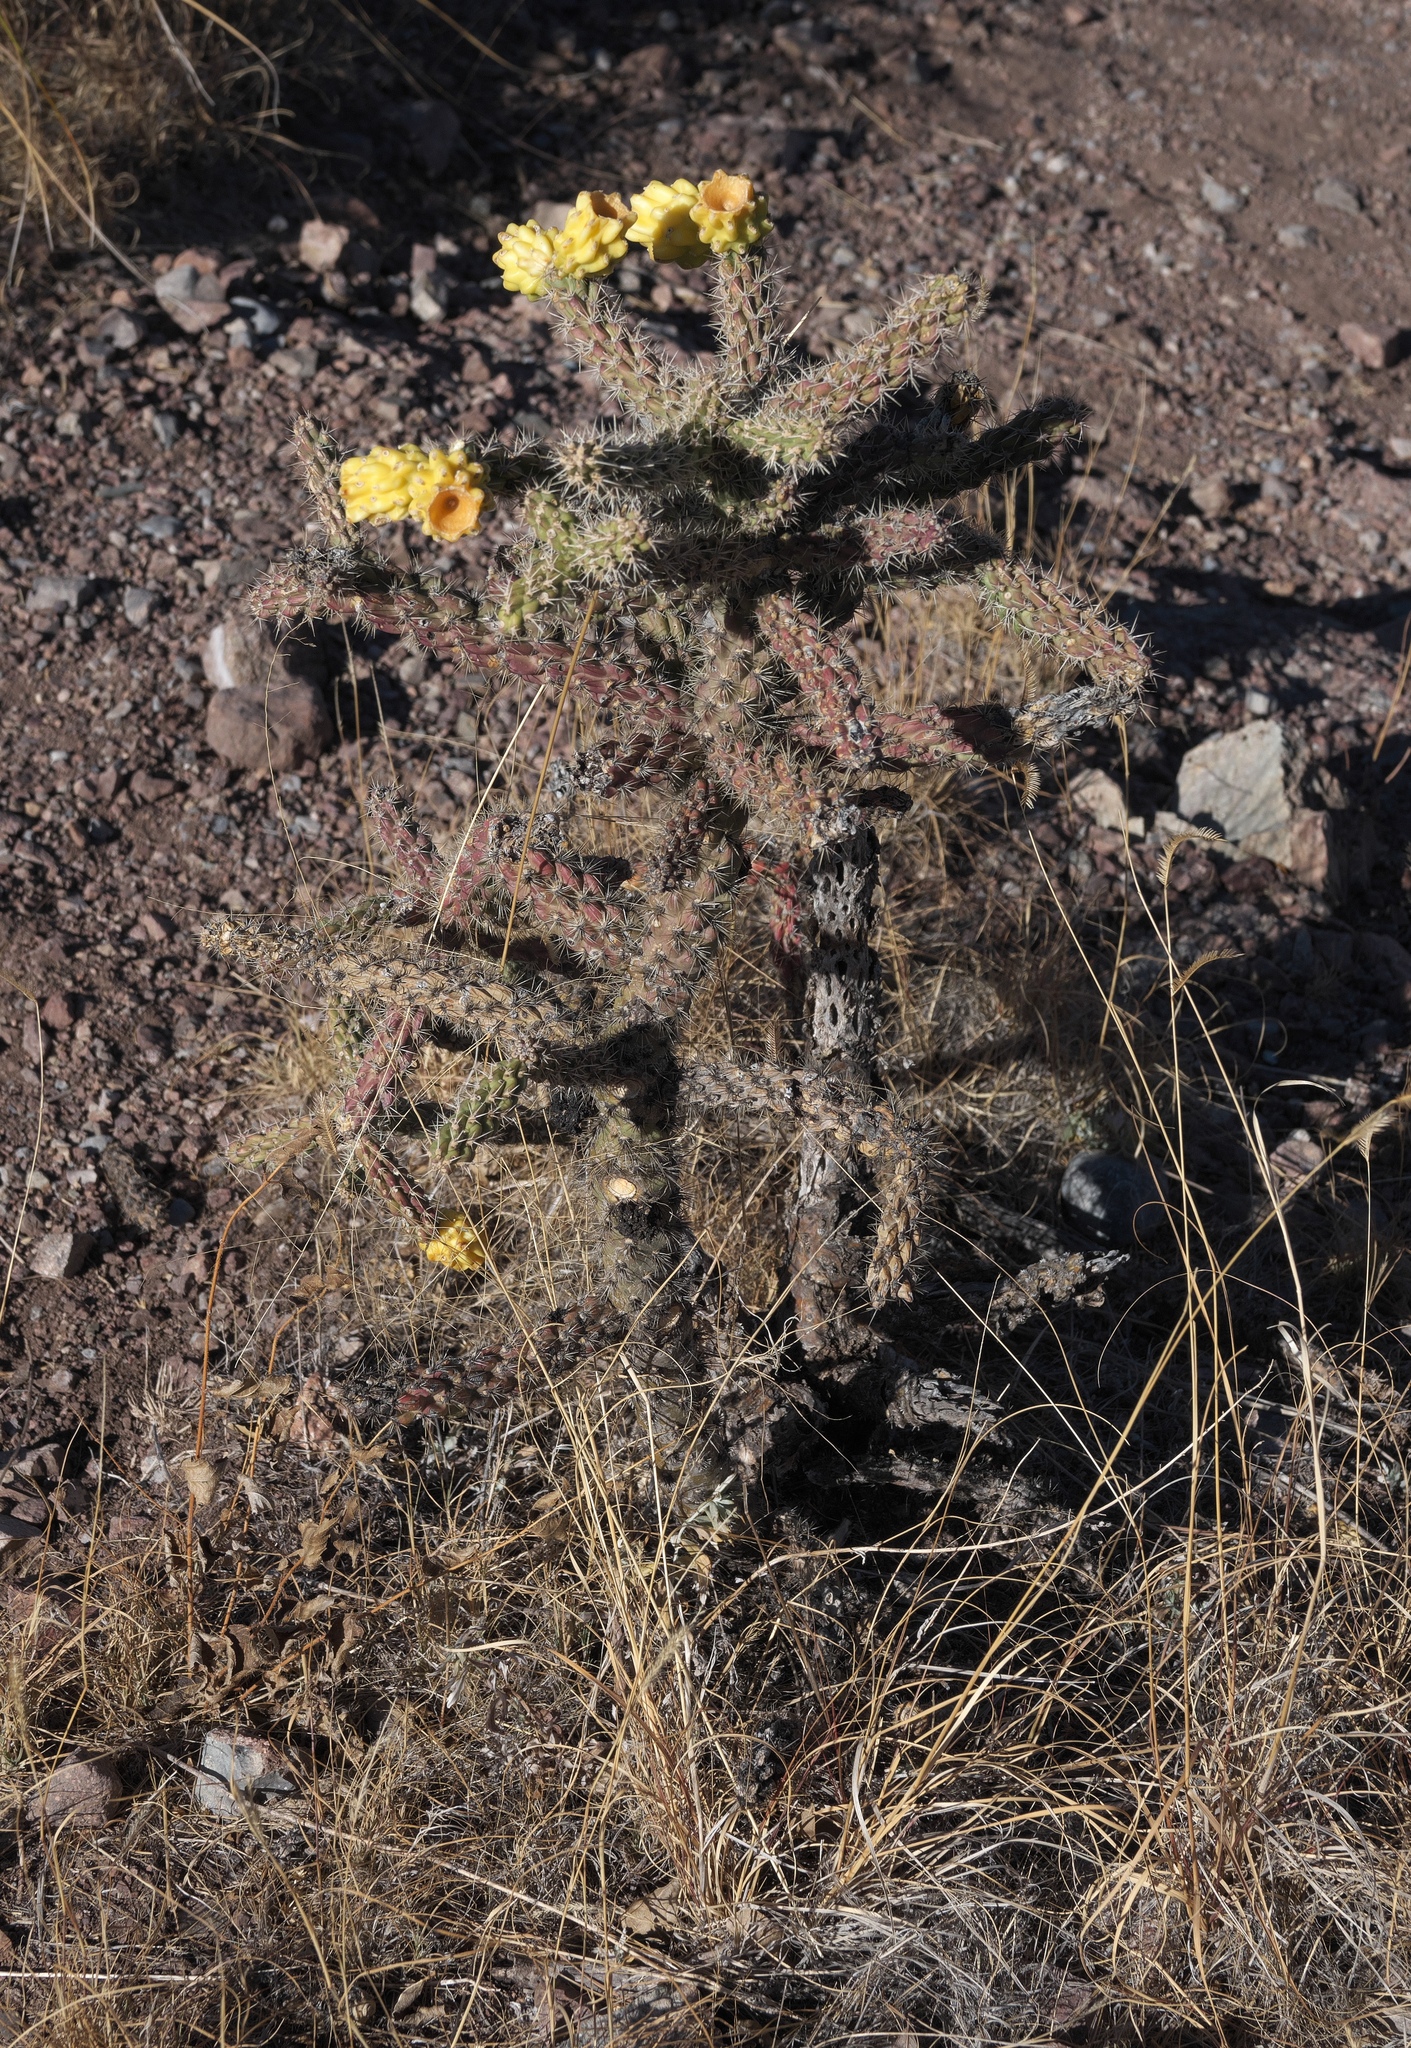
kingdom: Plantae
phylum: Tracheophyta
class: Magnoliopsida
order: Caryophyllales
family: Cactaceae
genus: Cylindropuntia
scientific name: Cylindropuntia imbricata
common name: Candelabrum cactus
